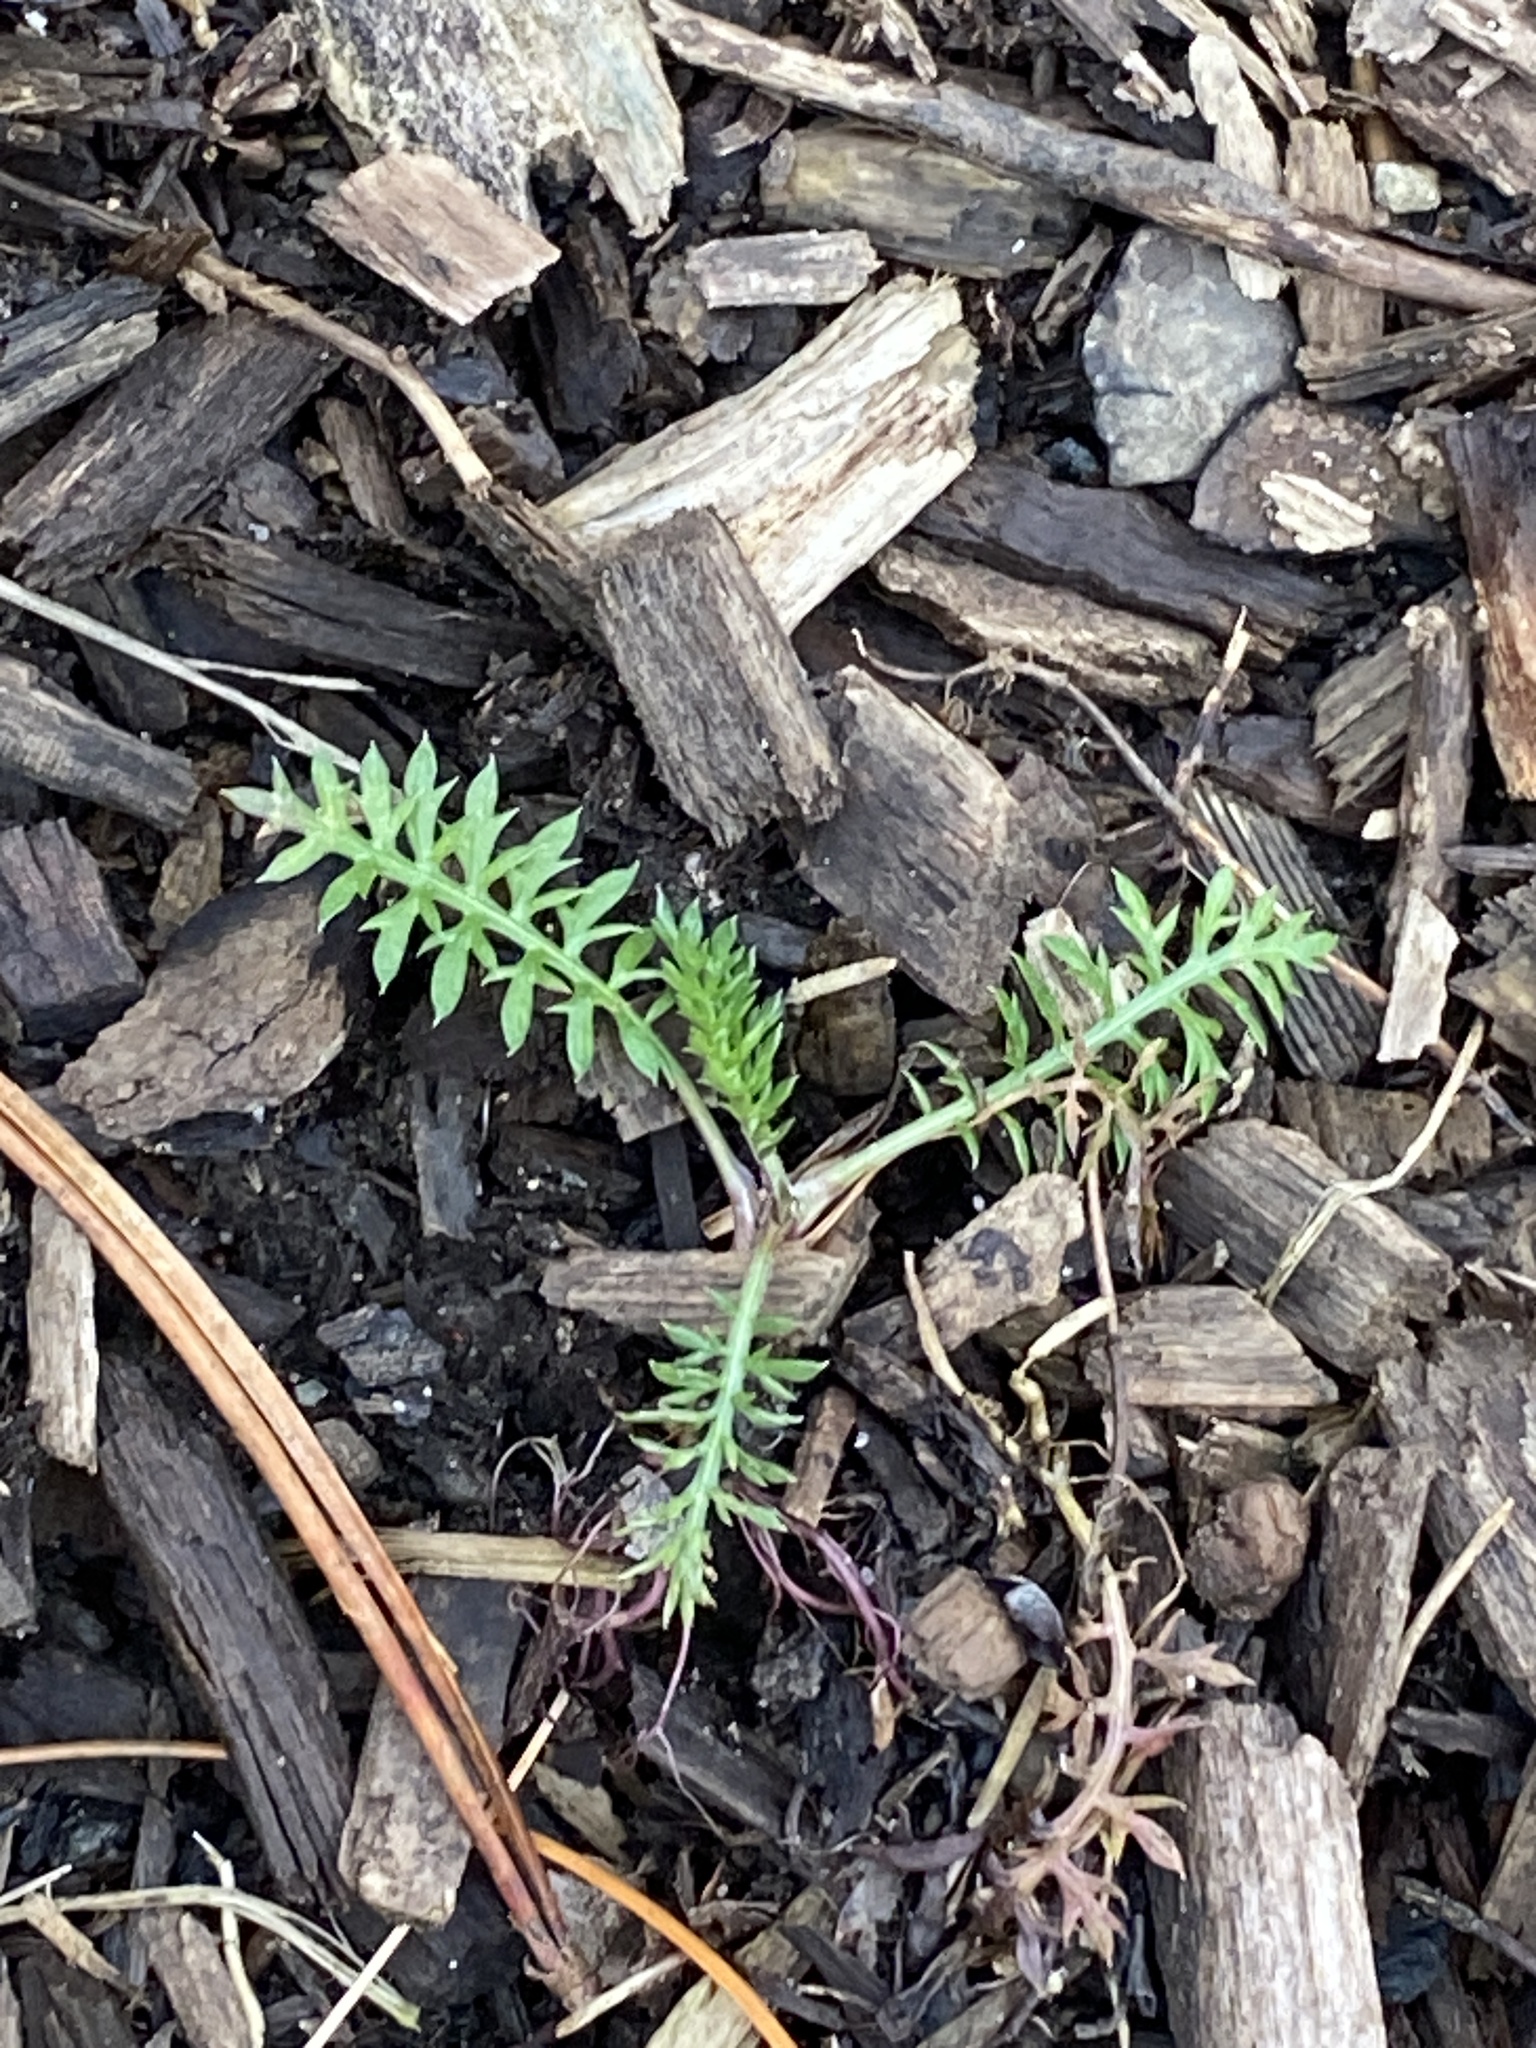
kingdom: Plantae
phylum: Tracheophyta
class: Magnoliopsida
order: Asterales
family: Asteraceae
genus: Achillea
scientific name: Achillea millefolium
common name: Yarrow
